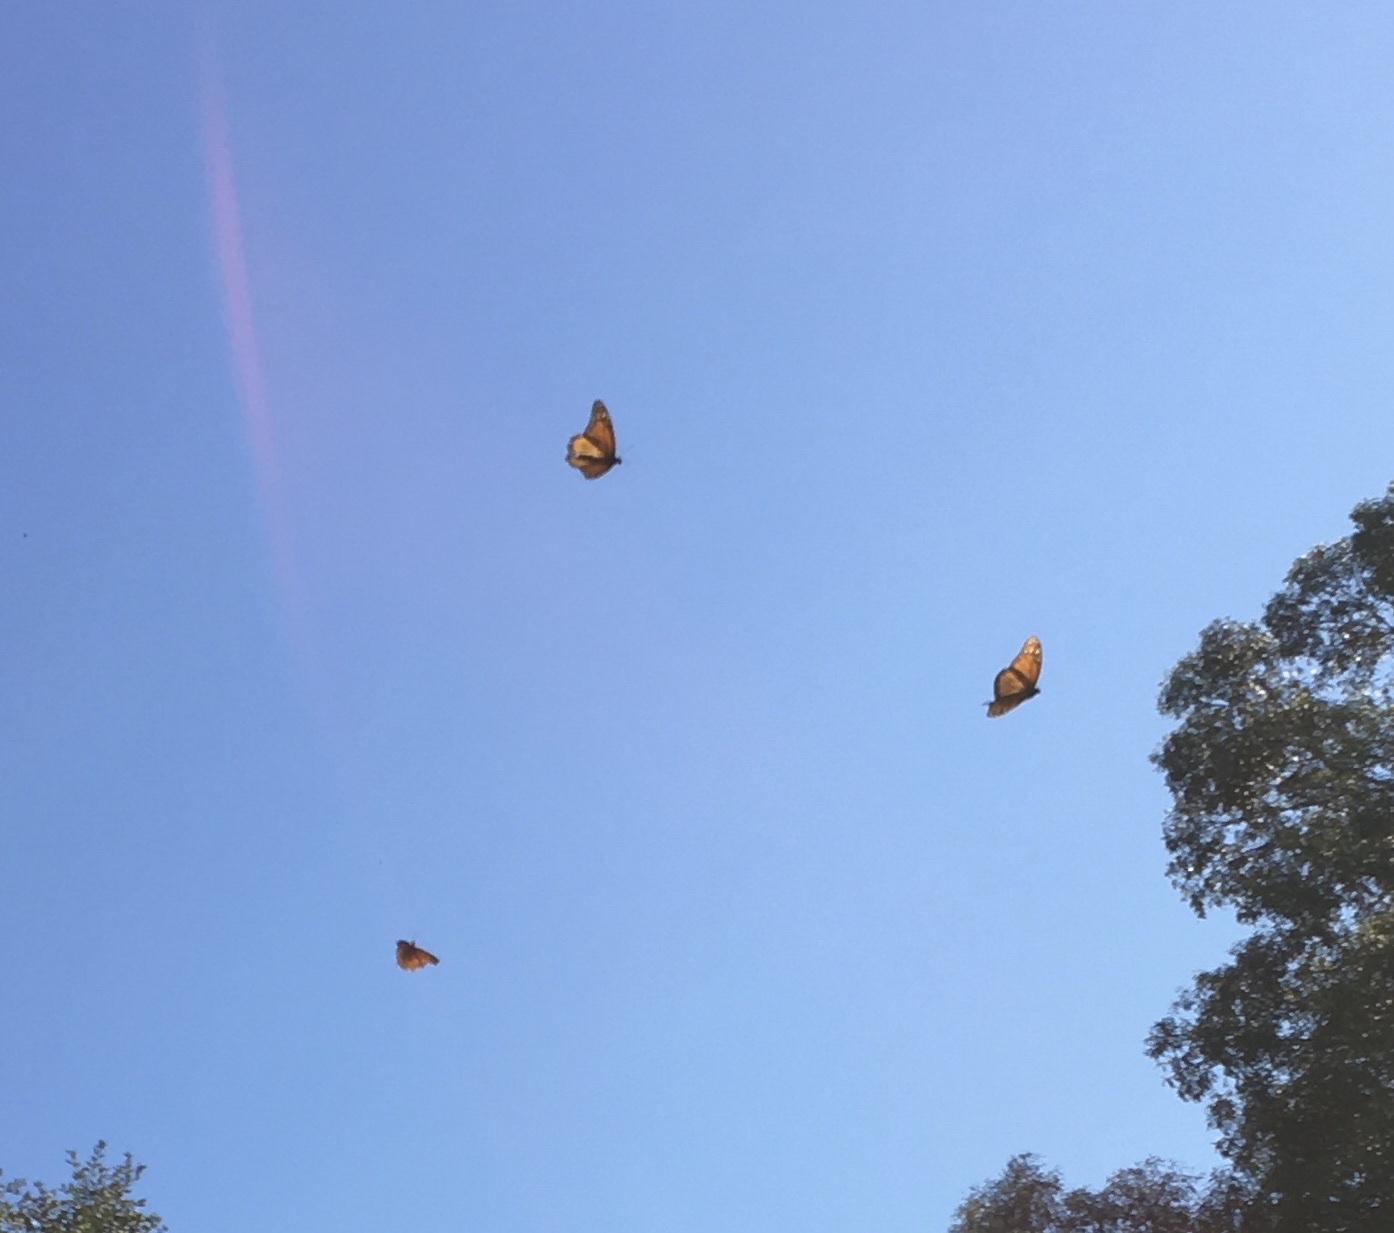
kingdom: Animalia
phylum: Arthropoda
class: Insecta
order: Lepidoptera
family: Nymphalidae
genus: Danaus
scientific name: Danaus plexippus
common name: Monarch
